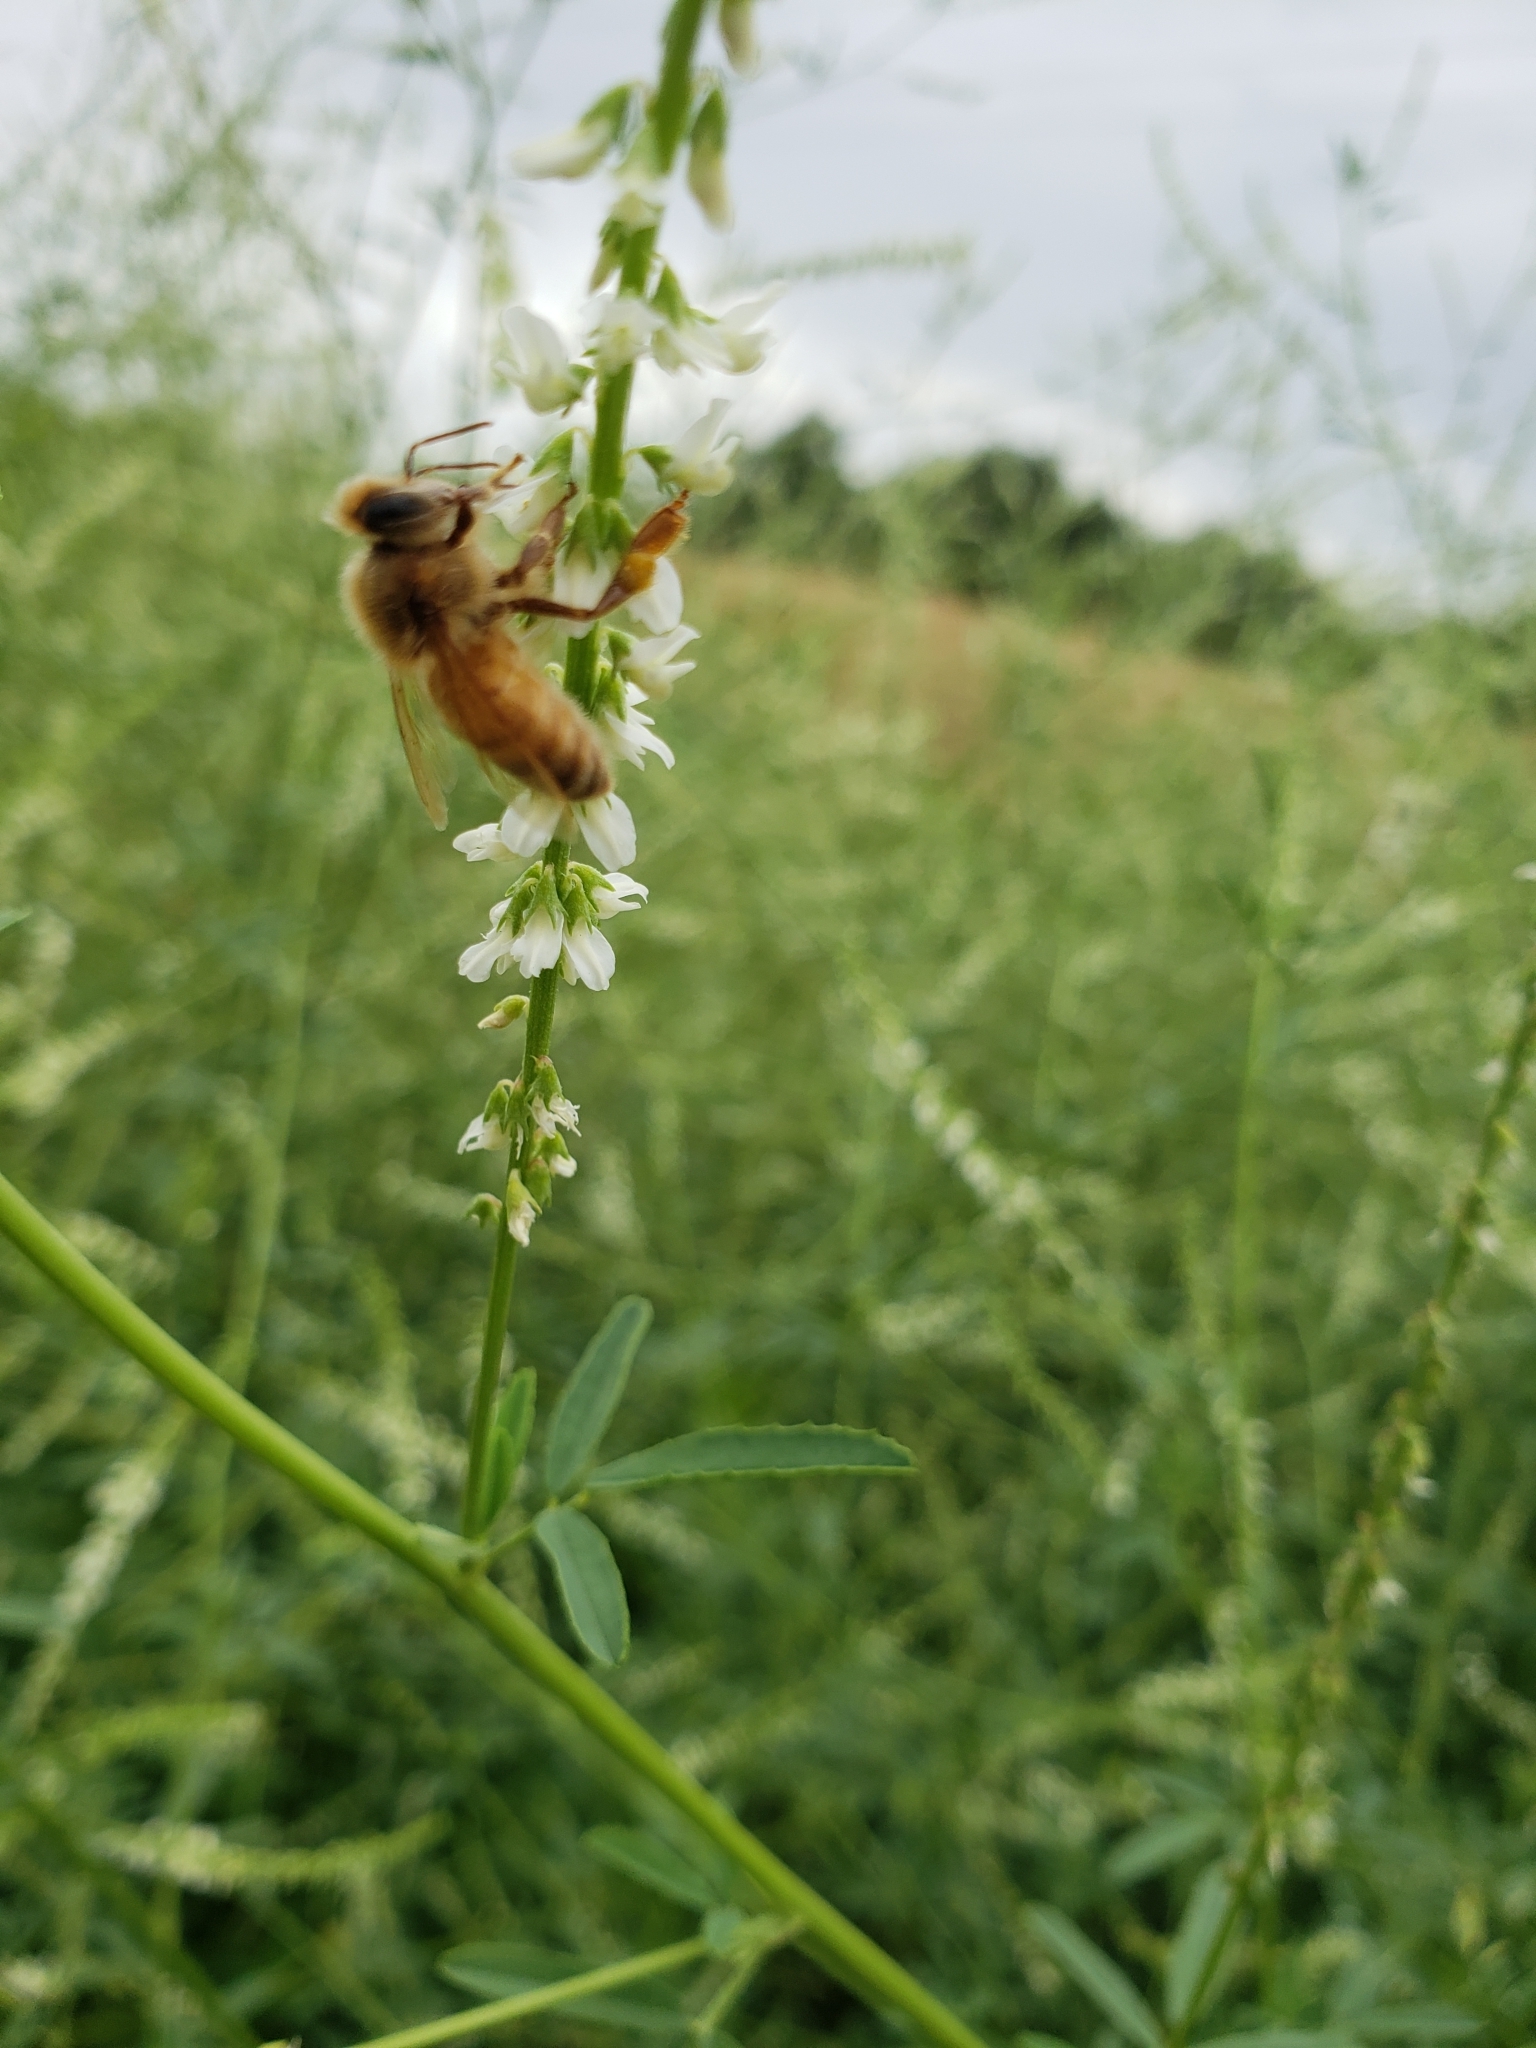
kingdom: Animalia
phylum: Arthropoda
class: Insecta
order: Hymenoptera
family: Apidae
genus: Apis
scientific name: Apis mellifera
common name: Honey bee
